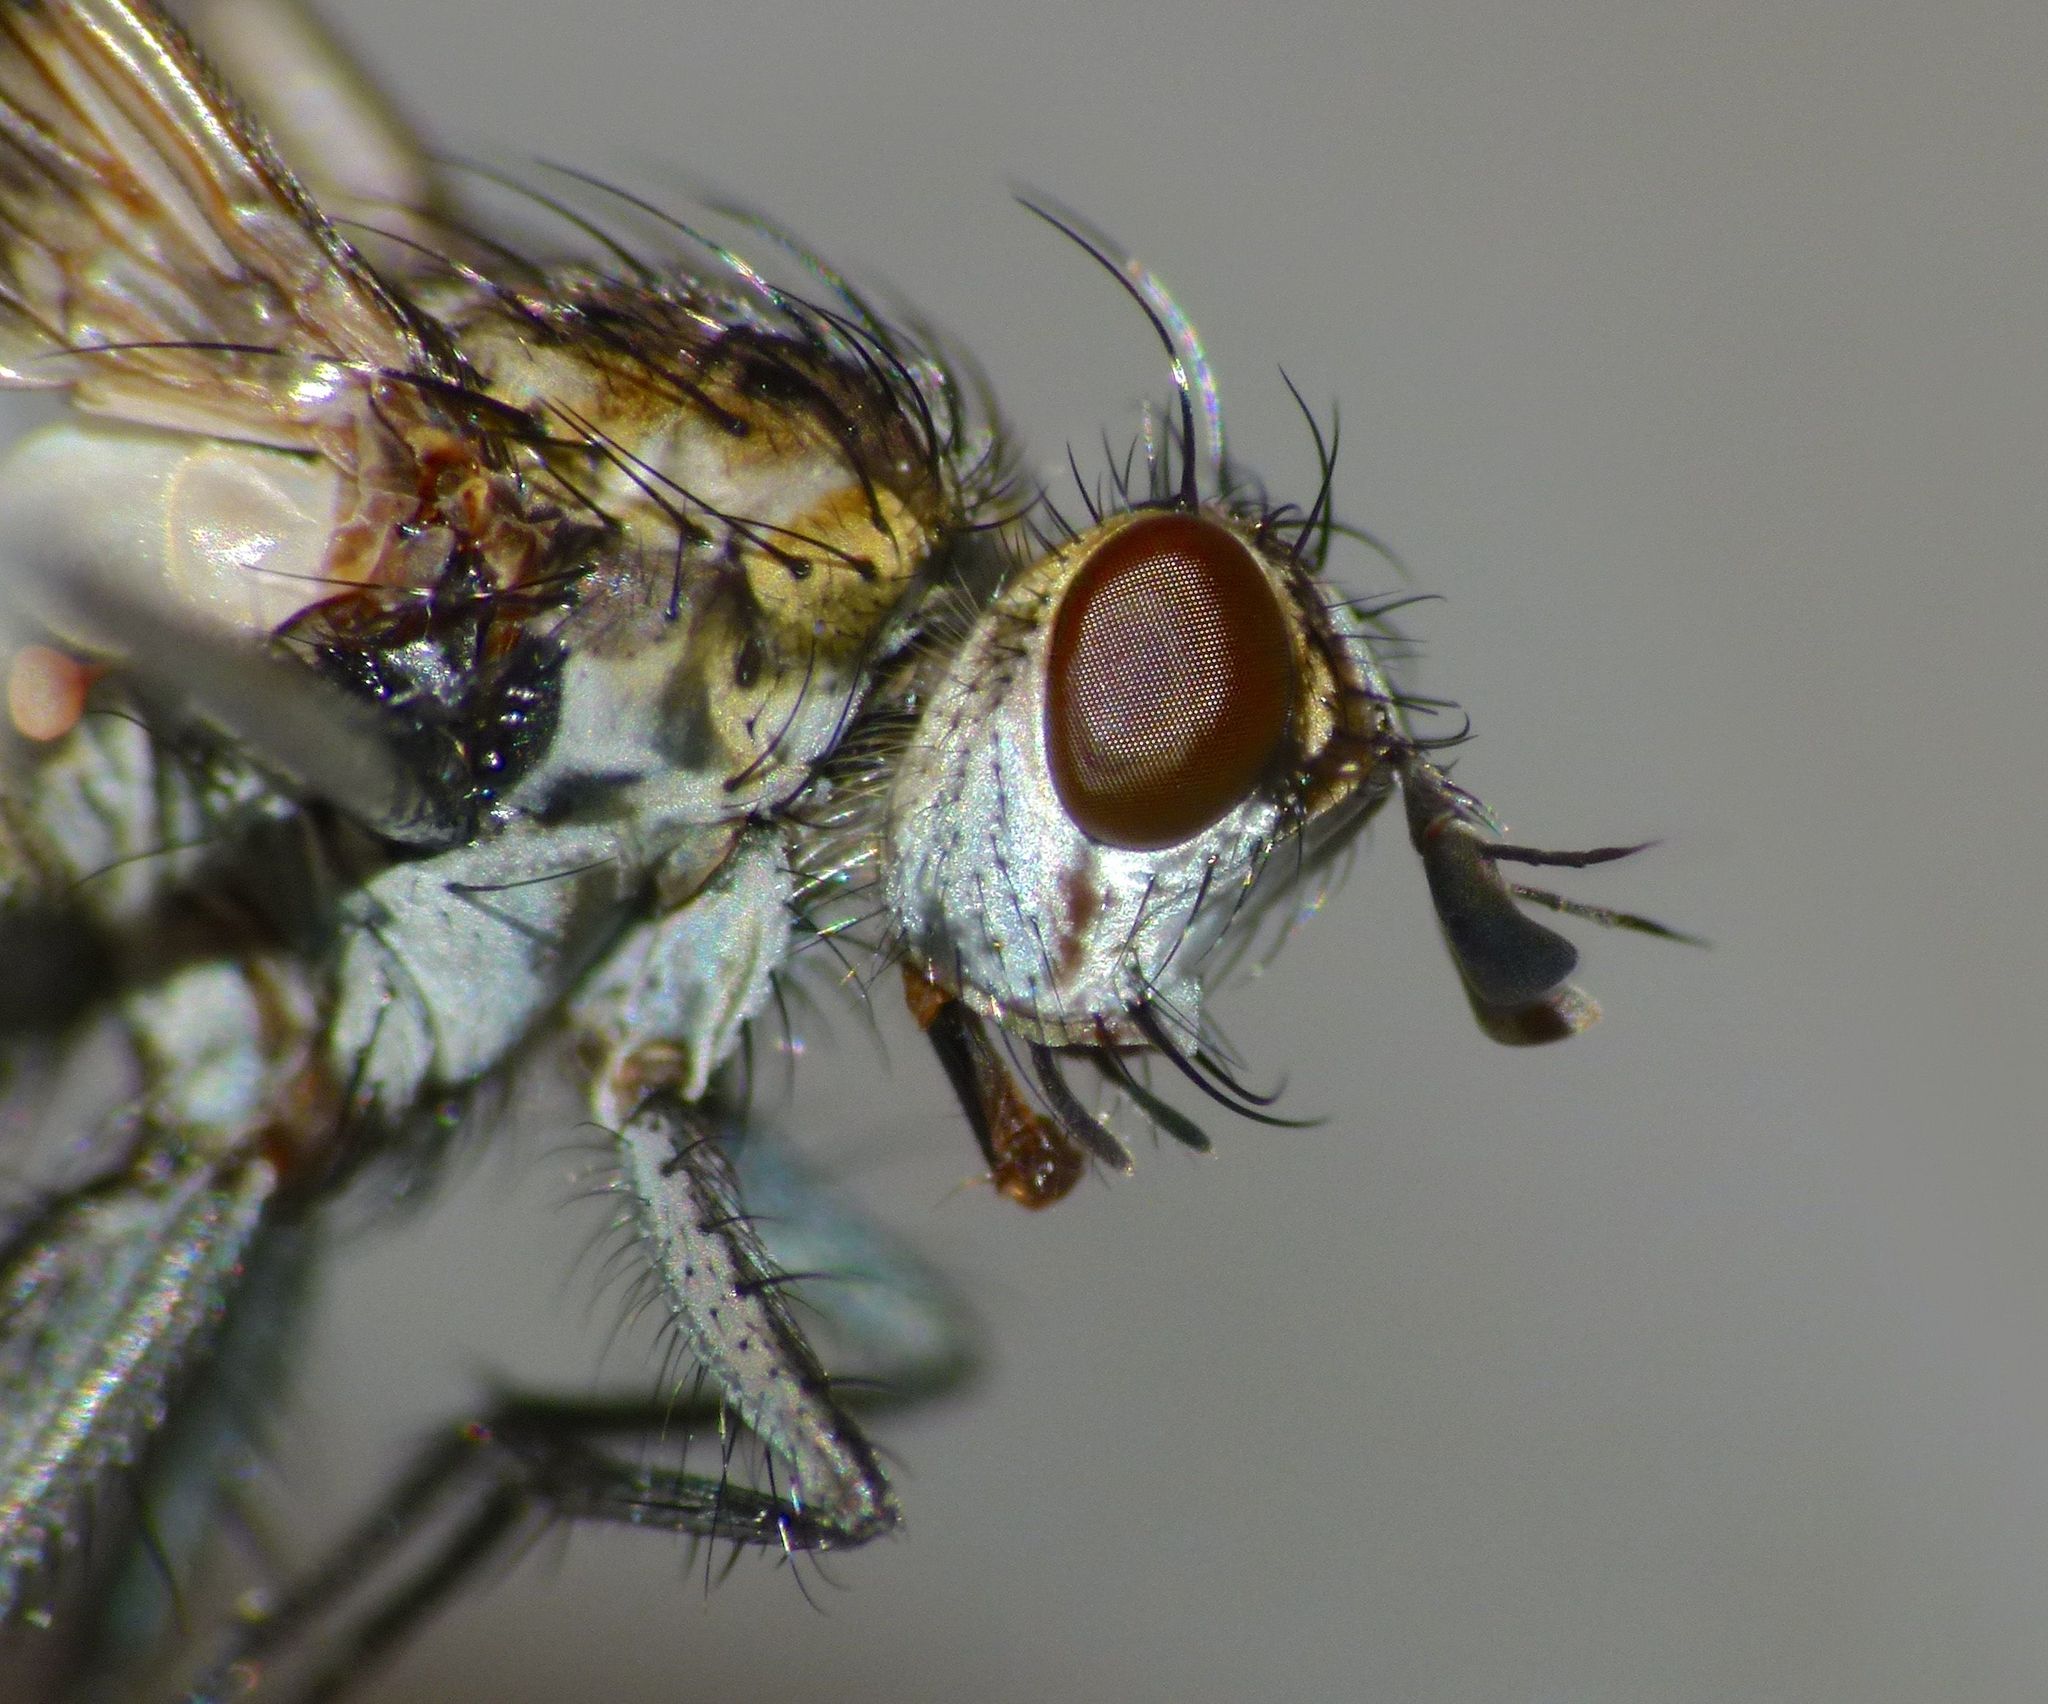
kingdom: Animalia
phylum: Arthropoda
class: Insecta
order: Diptera
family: Tachinidae
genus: Heteria
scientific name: Heteria appendiculata
